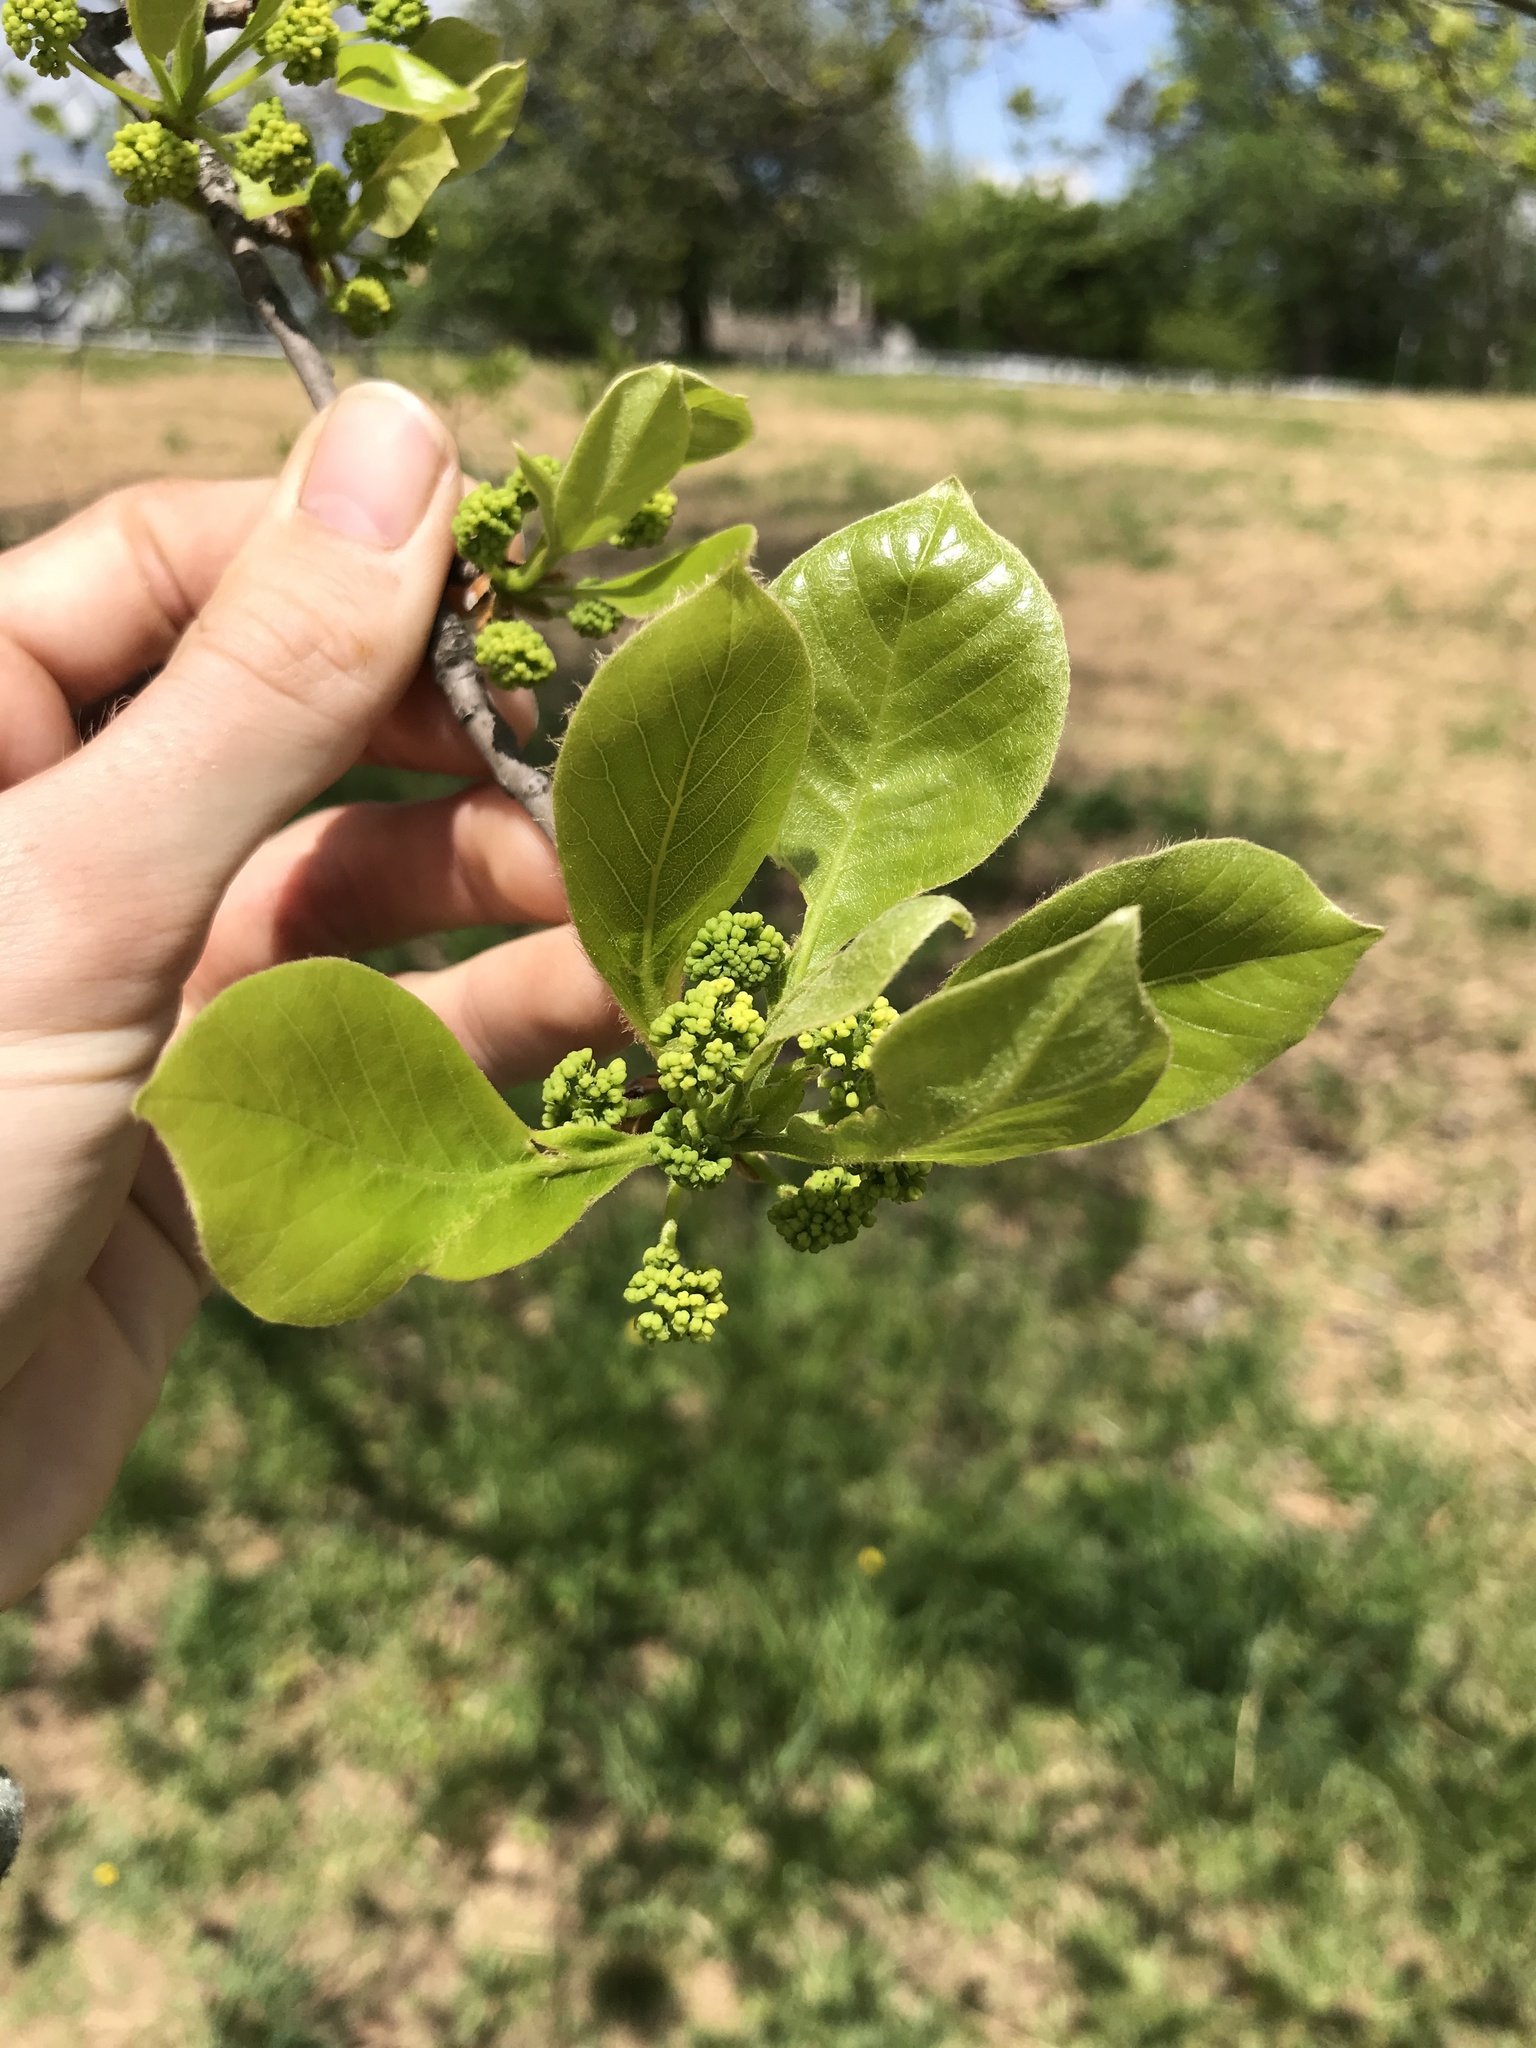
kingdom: Plantae
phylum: Tracheophyta
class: Magnoliopsida
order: Cornales
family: Nyssaceae
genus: Nyssa
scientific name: Nyssa sylvatica
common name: Black tupelo
